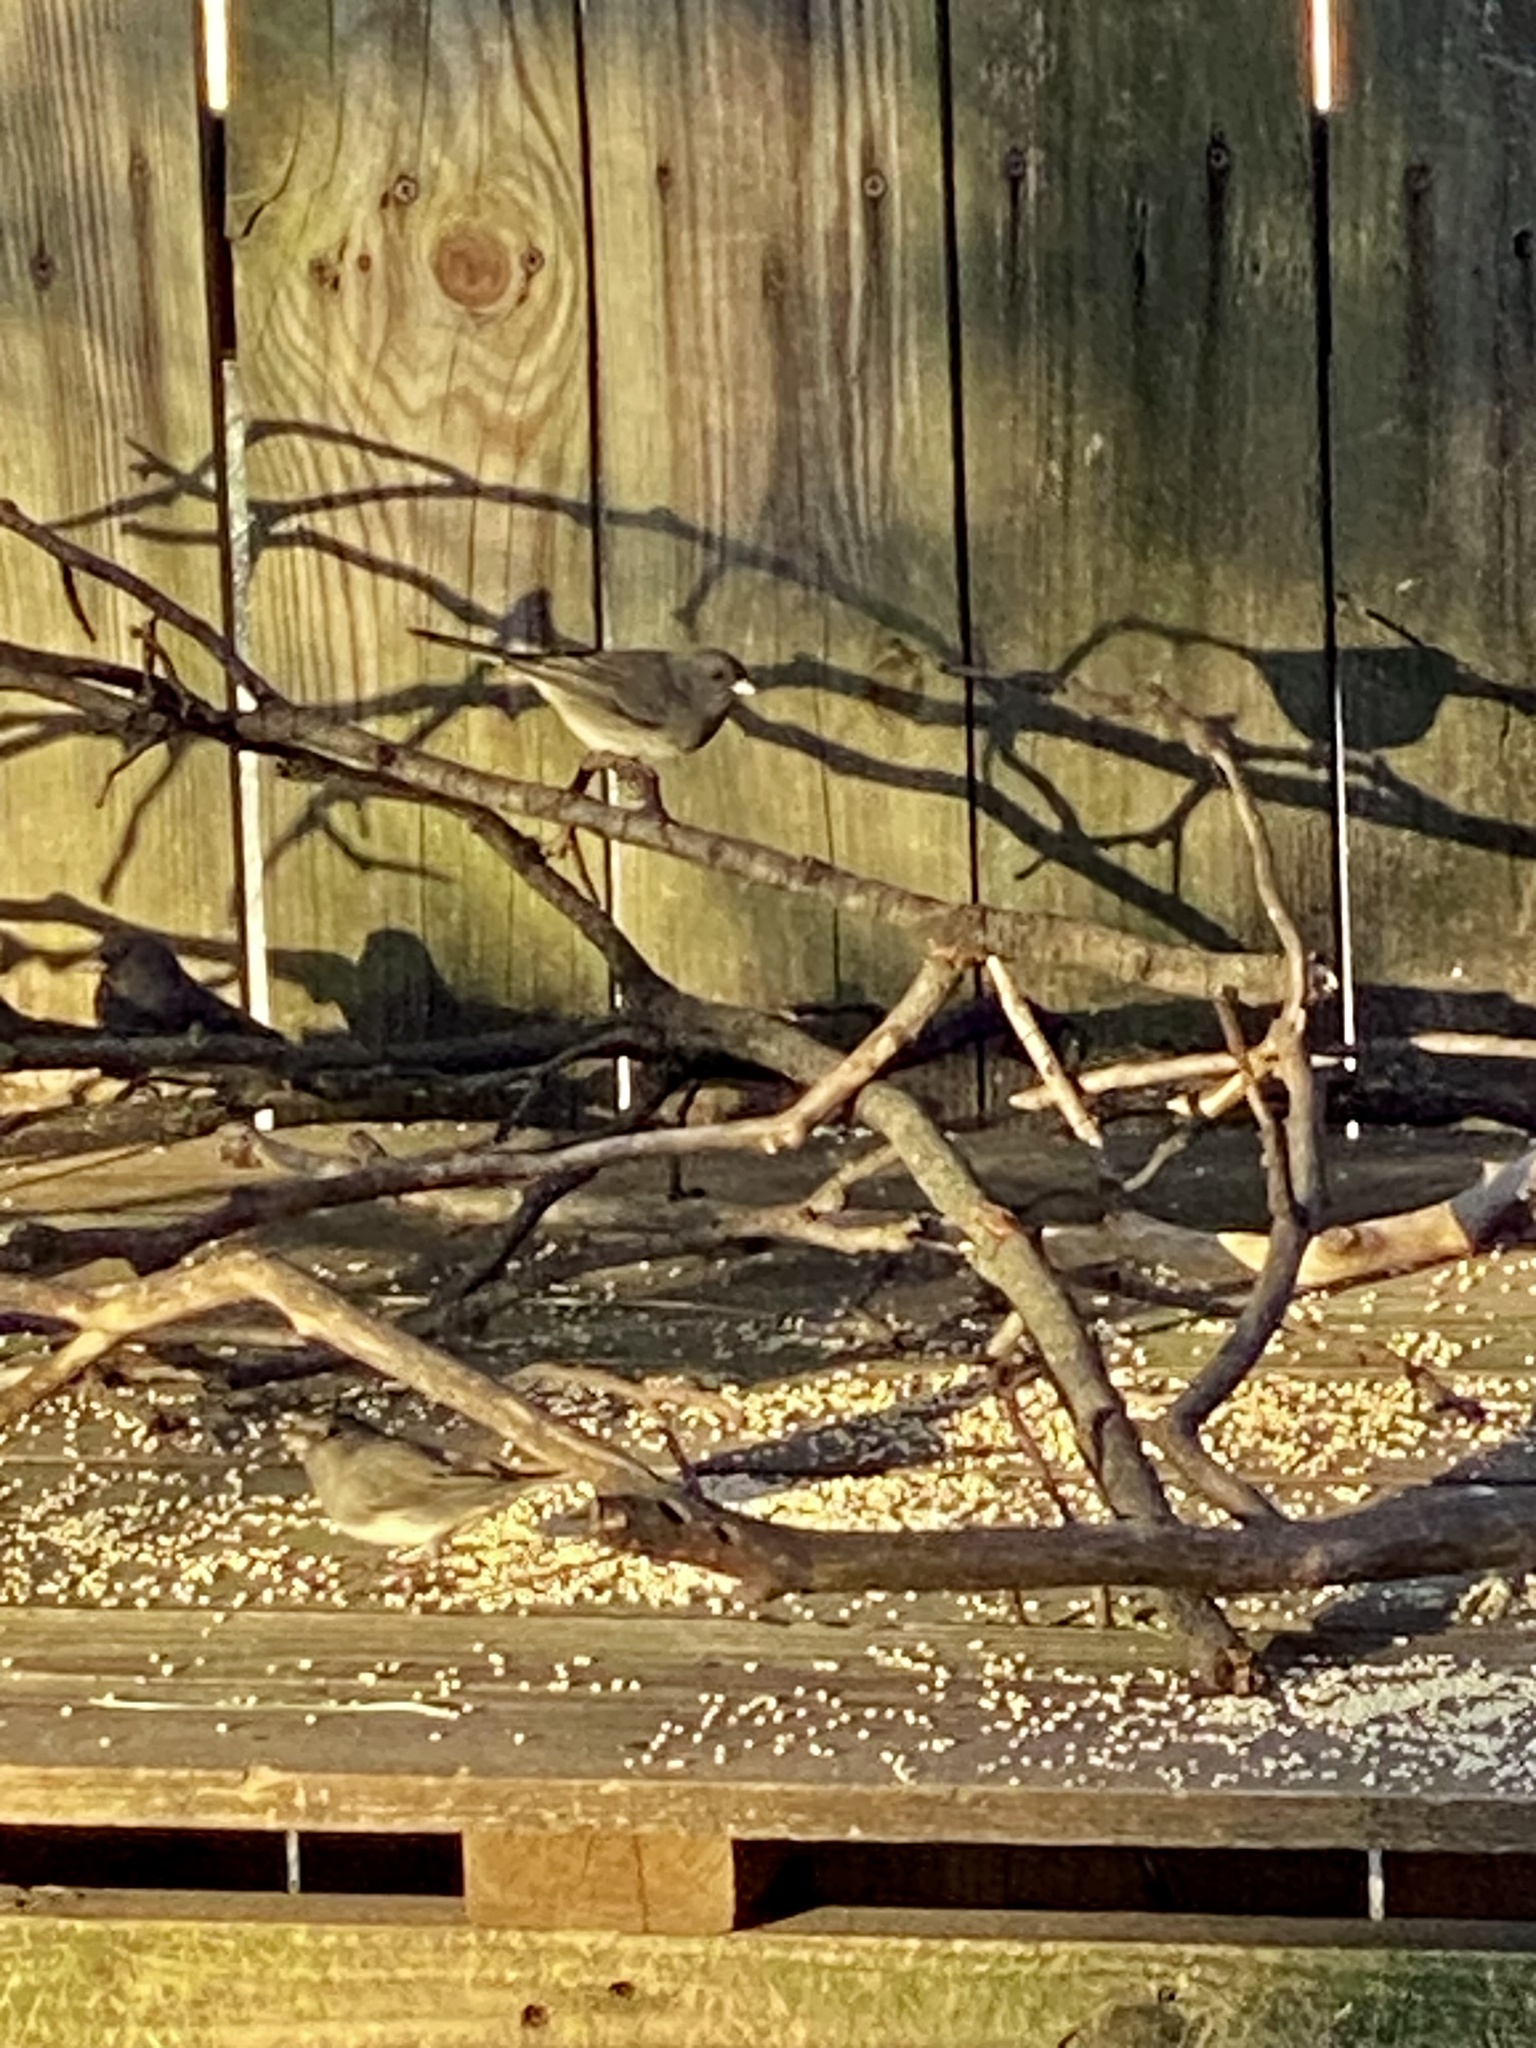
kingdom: Animalia
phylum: Chordata
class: Aves
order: Passeriformes
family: Passerellidae
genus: Junco
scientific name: Junco hyemalis
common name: Dark-eyed junco
